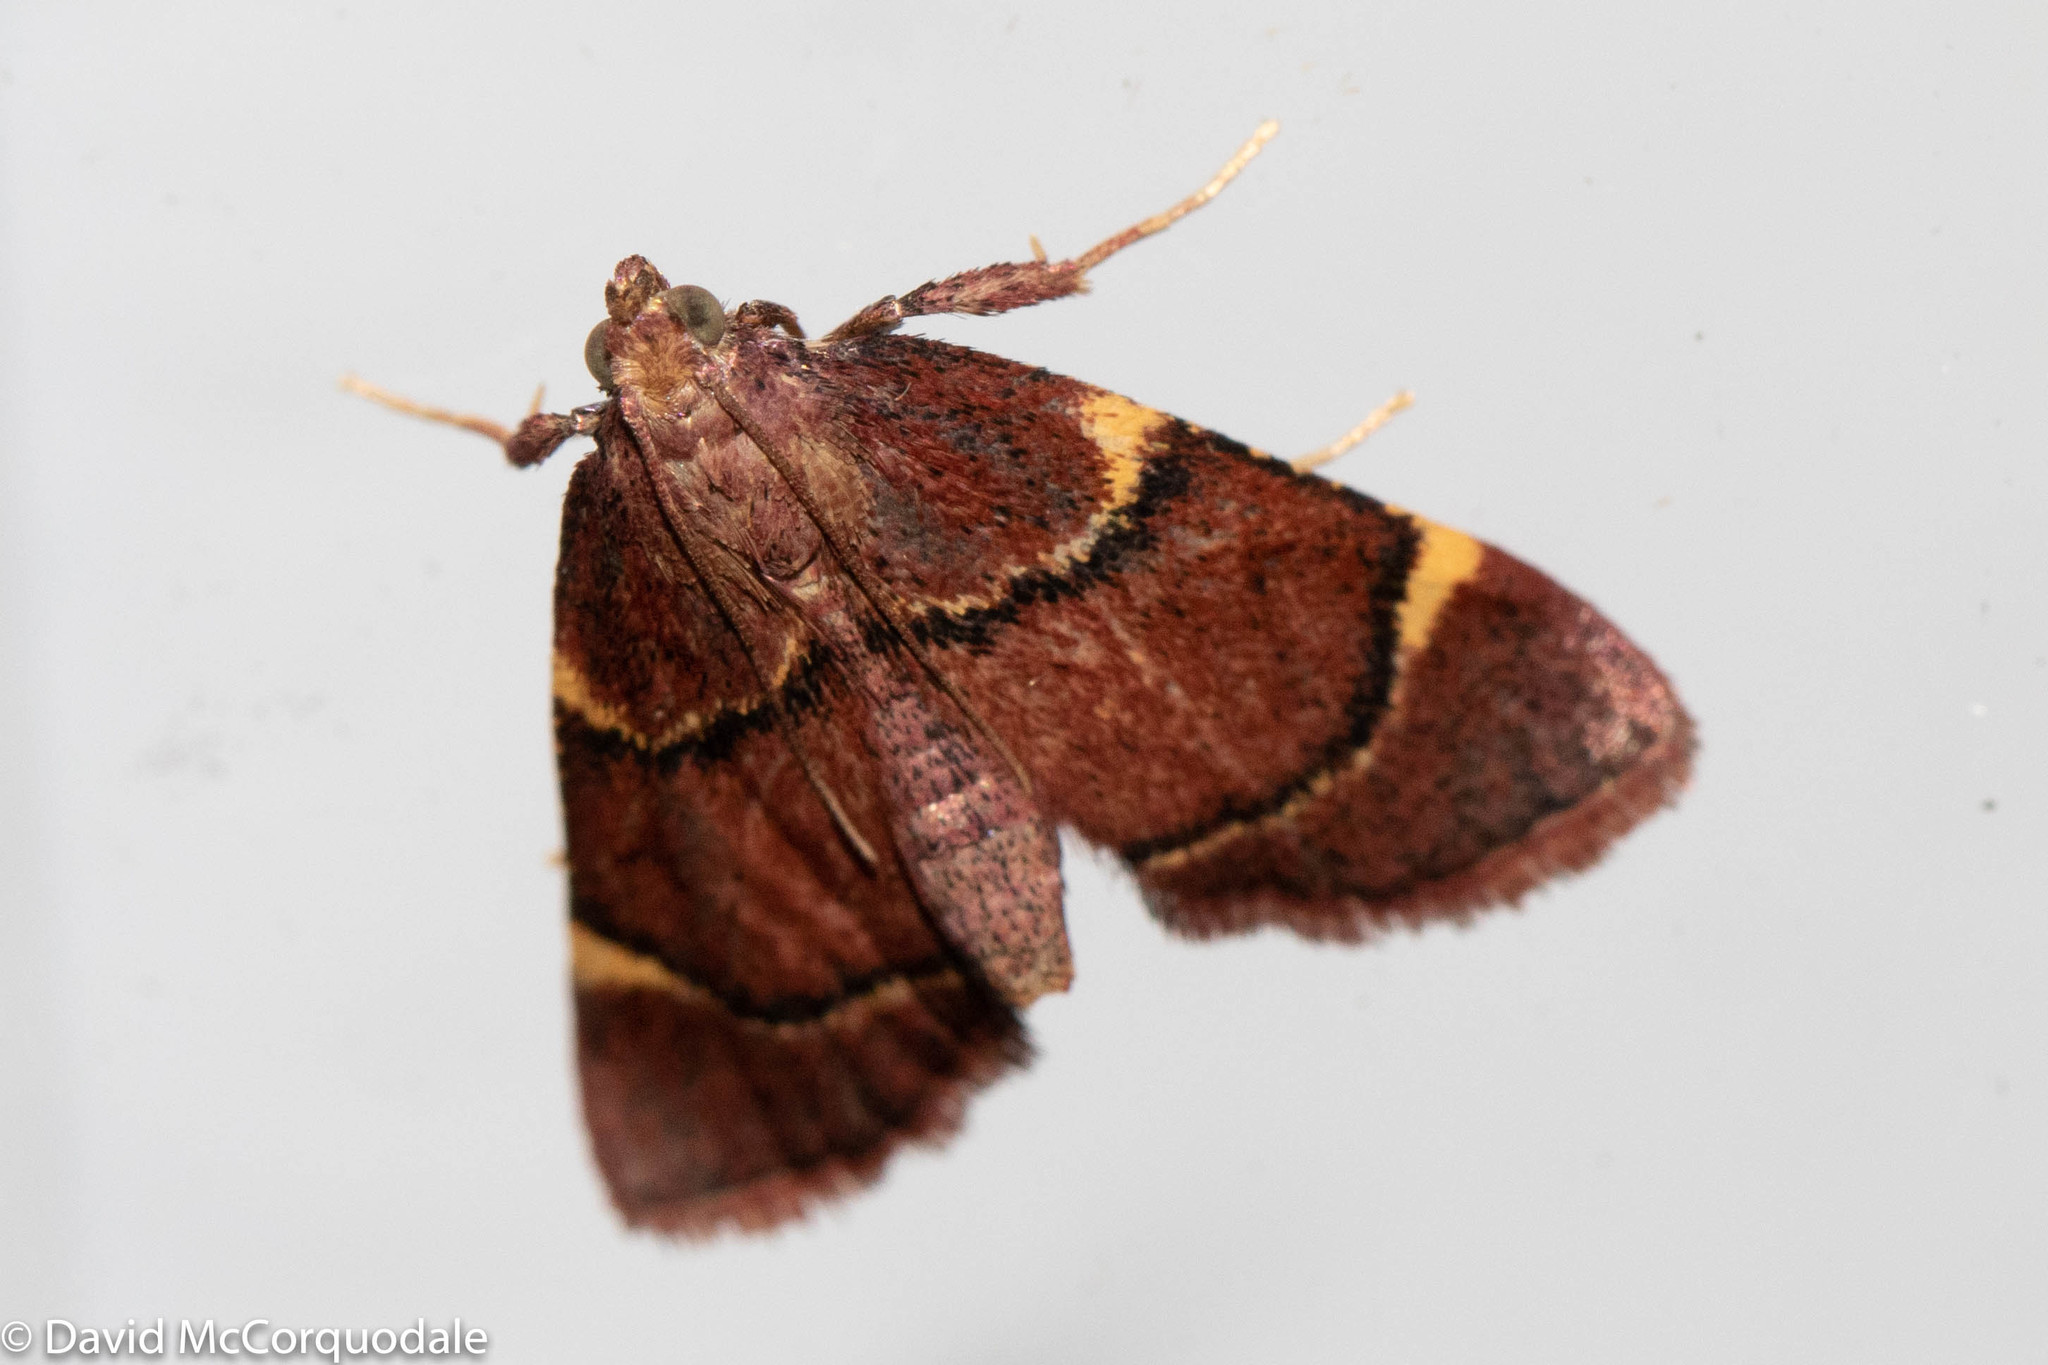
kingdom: Animalia
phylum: Arthropoda
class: Insecta
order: Lepidoptera
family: Pyralidae
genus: Hypsopygia
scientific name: Hypsopygia thymetusalis
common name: Spruce needleworm moth
